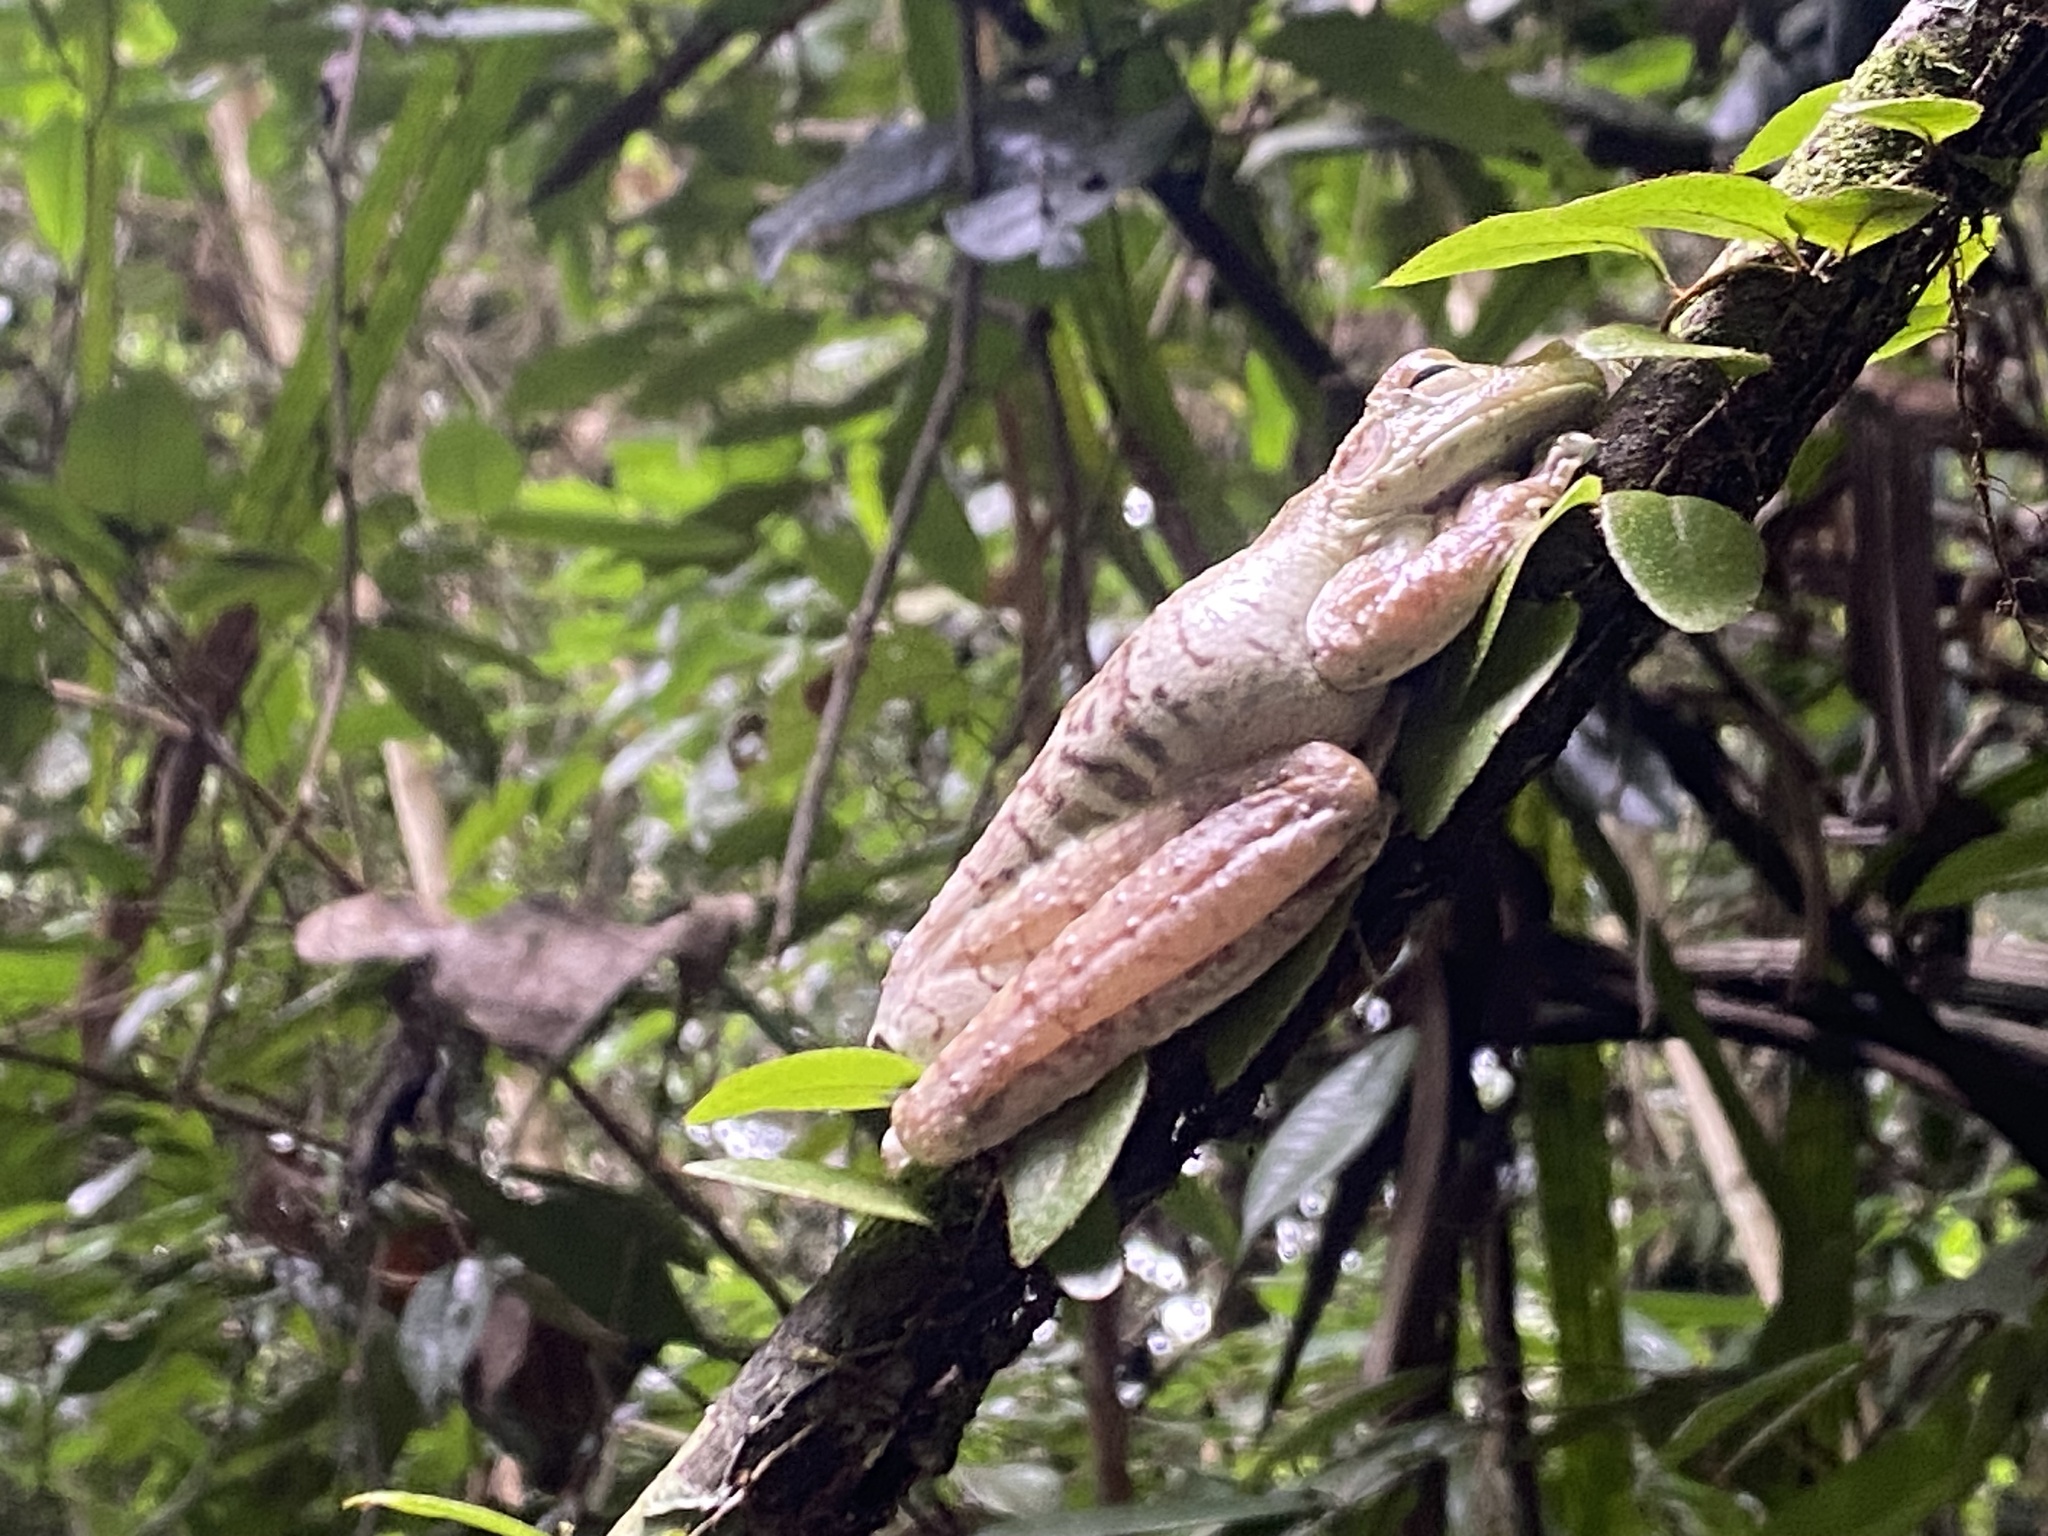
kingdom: Animalia
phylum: Chordata
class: Amphibia
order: Anura
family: Hylidae
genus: Boana
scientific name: Boana boans
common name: Giant gladiator treefrog
